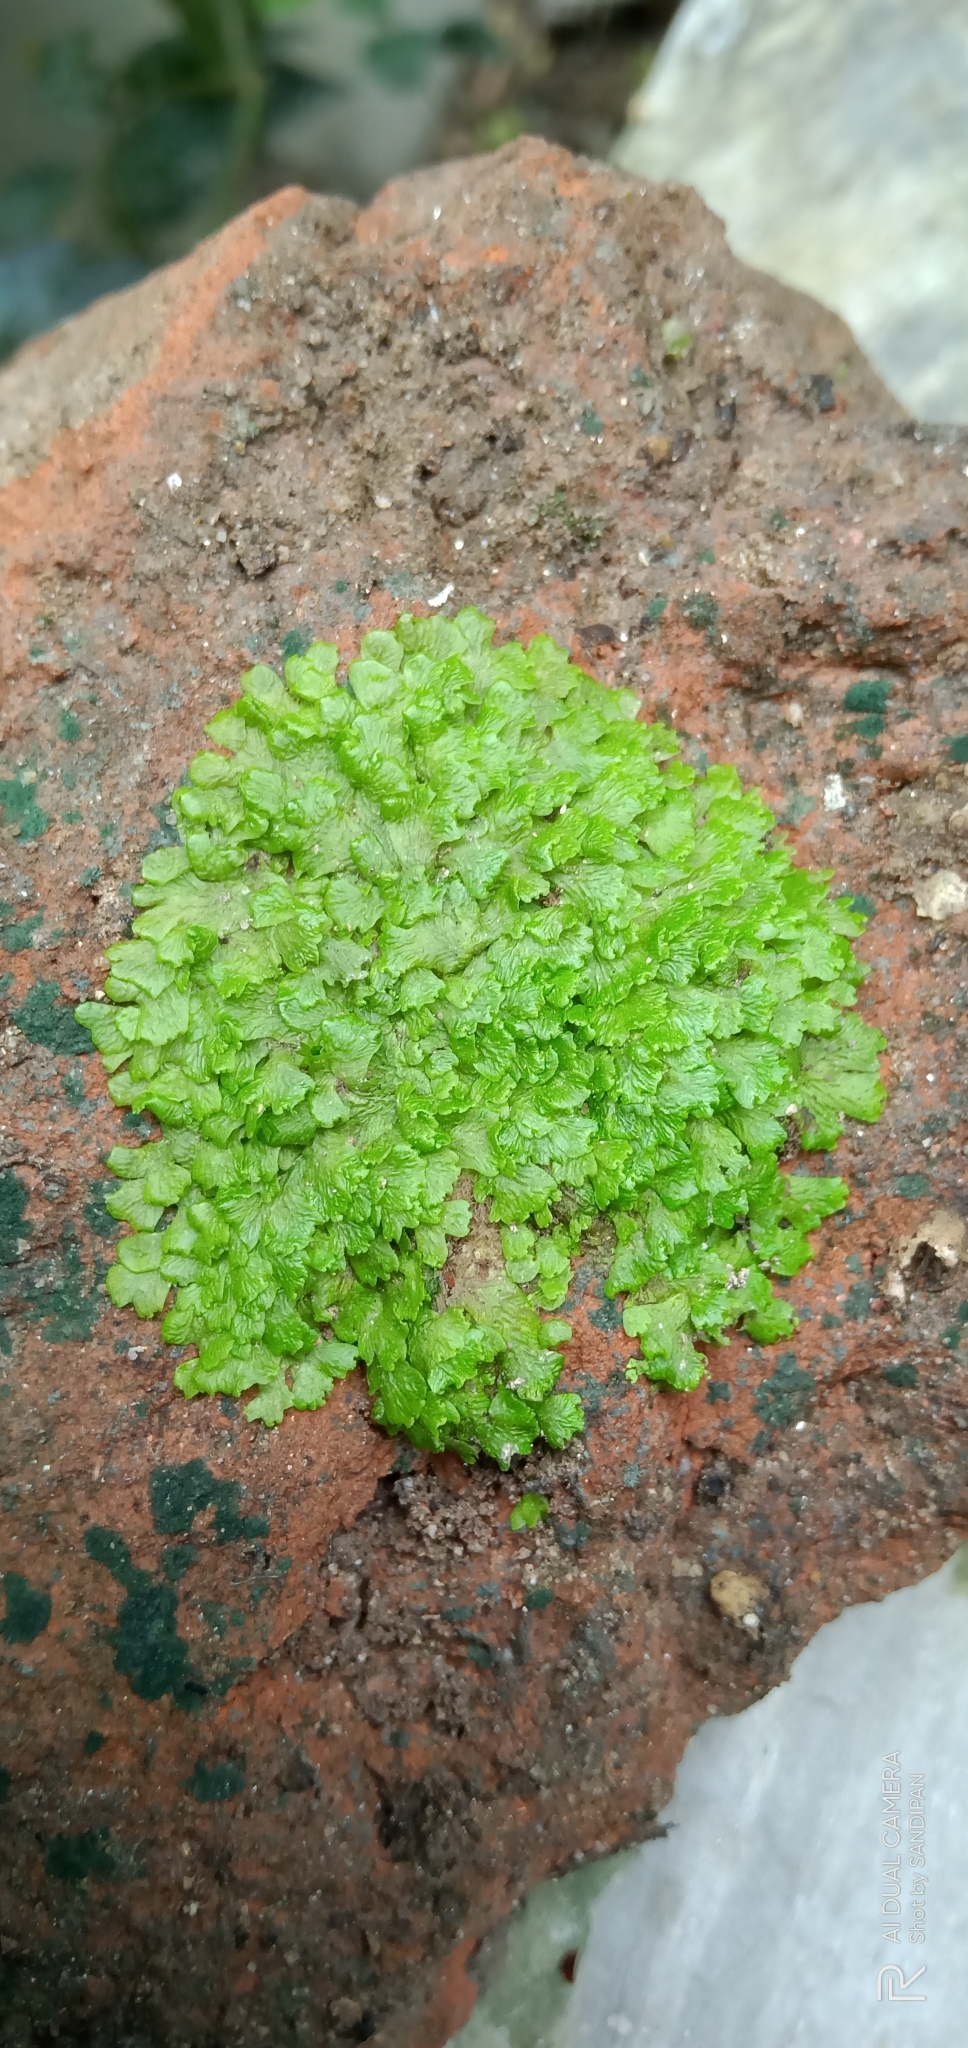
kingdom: Plantae
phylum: Marchantiophyta
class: Marchantiopsida
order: Marchantiales
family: Cyathodiaceae
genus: Cyathodium
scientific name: Cyathodium smaragdinum
